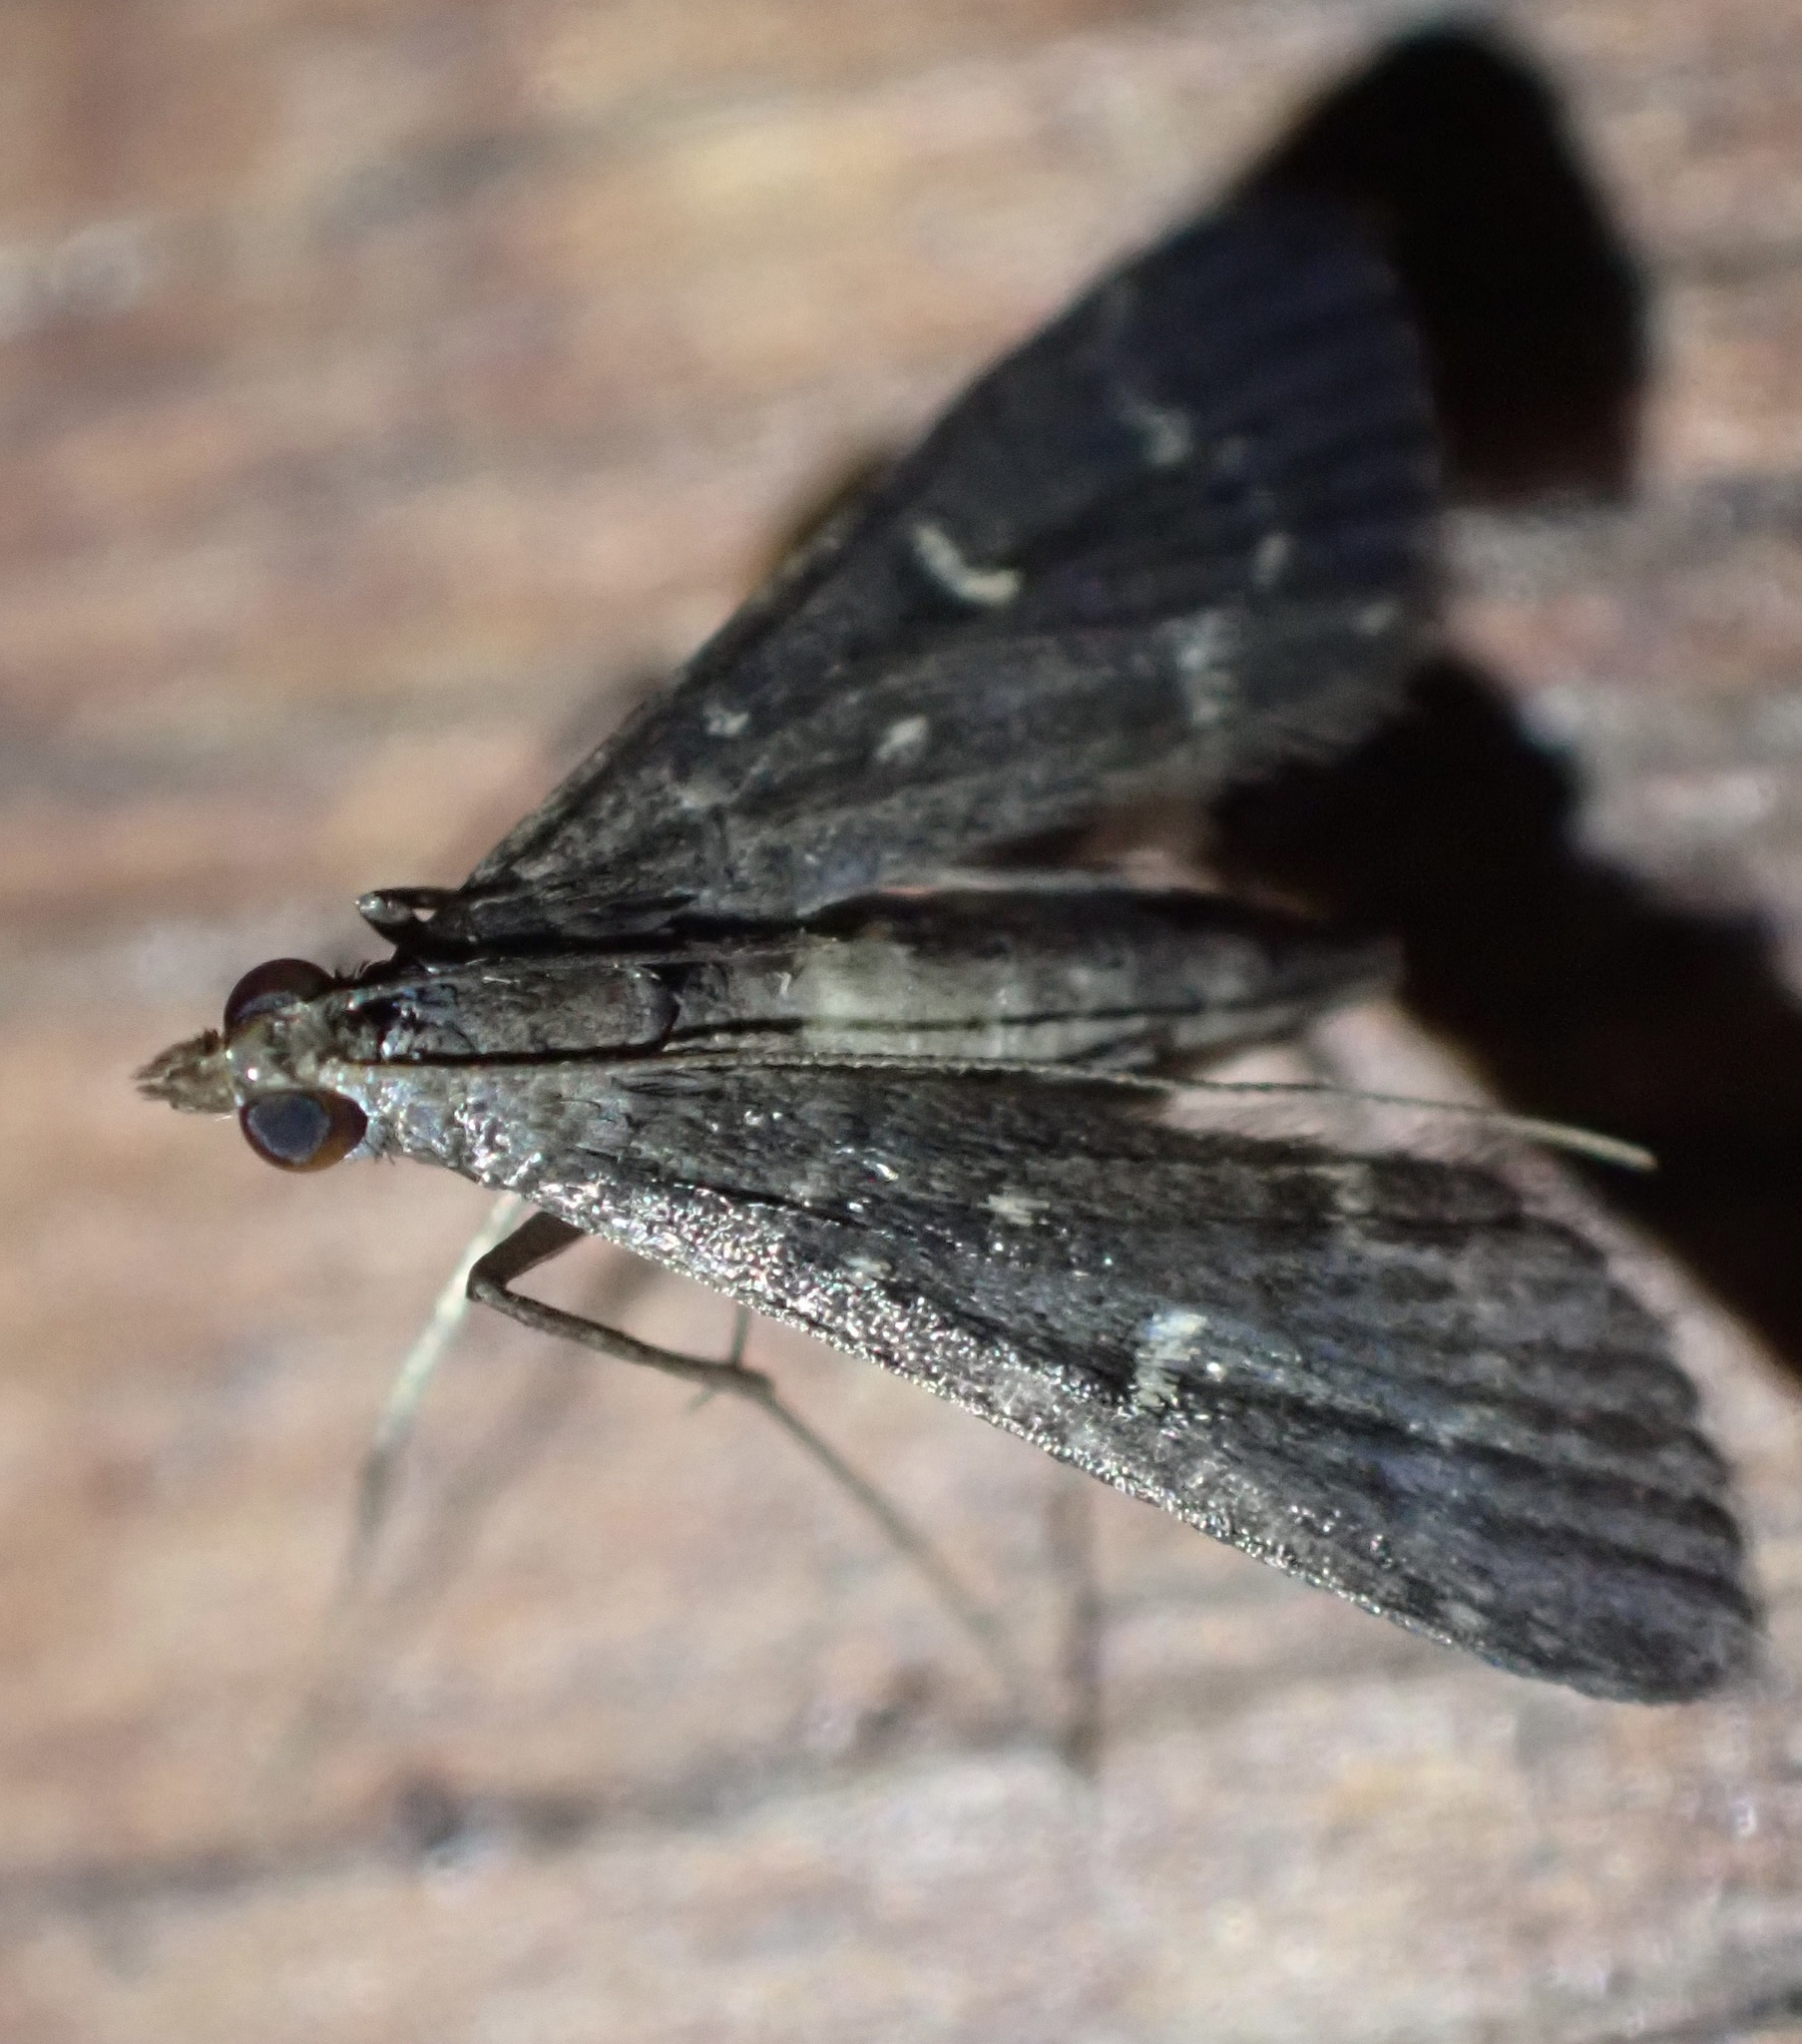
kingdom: Animalia
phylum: Arthropoda
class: Insecta
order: Lepidoptera
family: Crambidae
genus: Symmoracma
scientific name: Symmoracma minoralis
